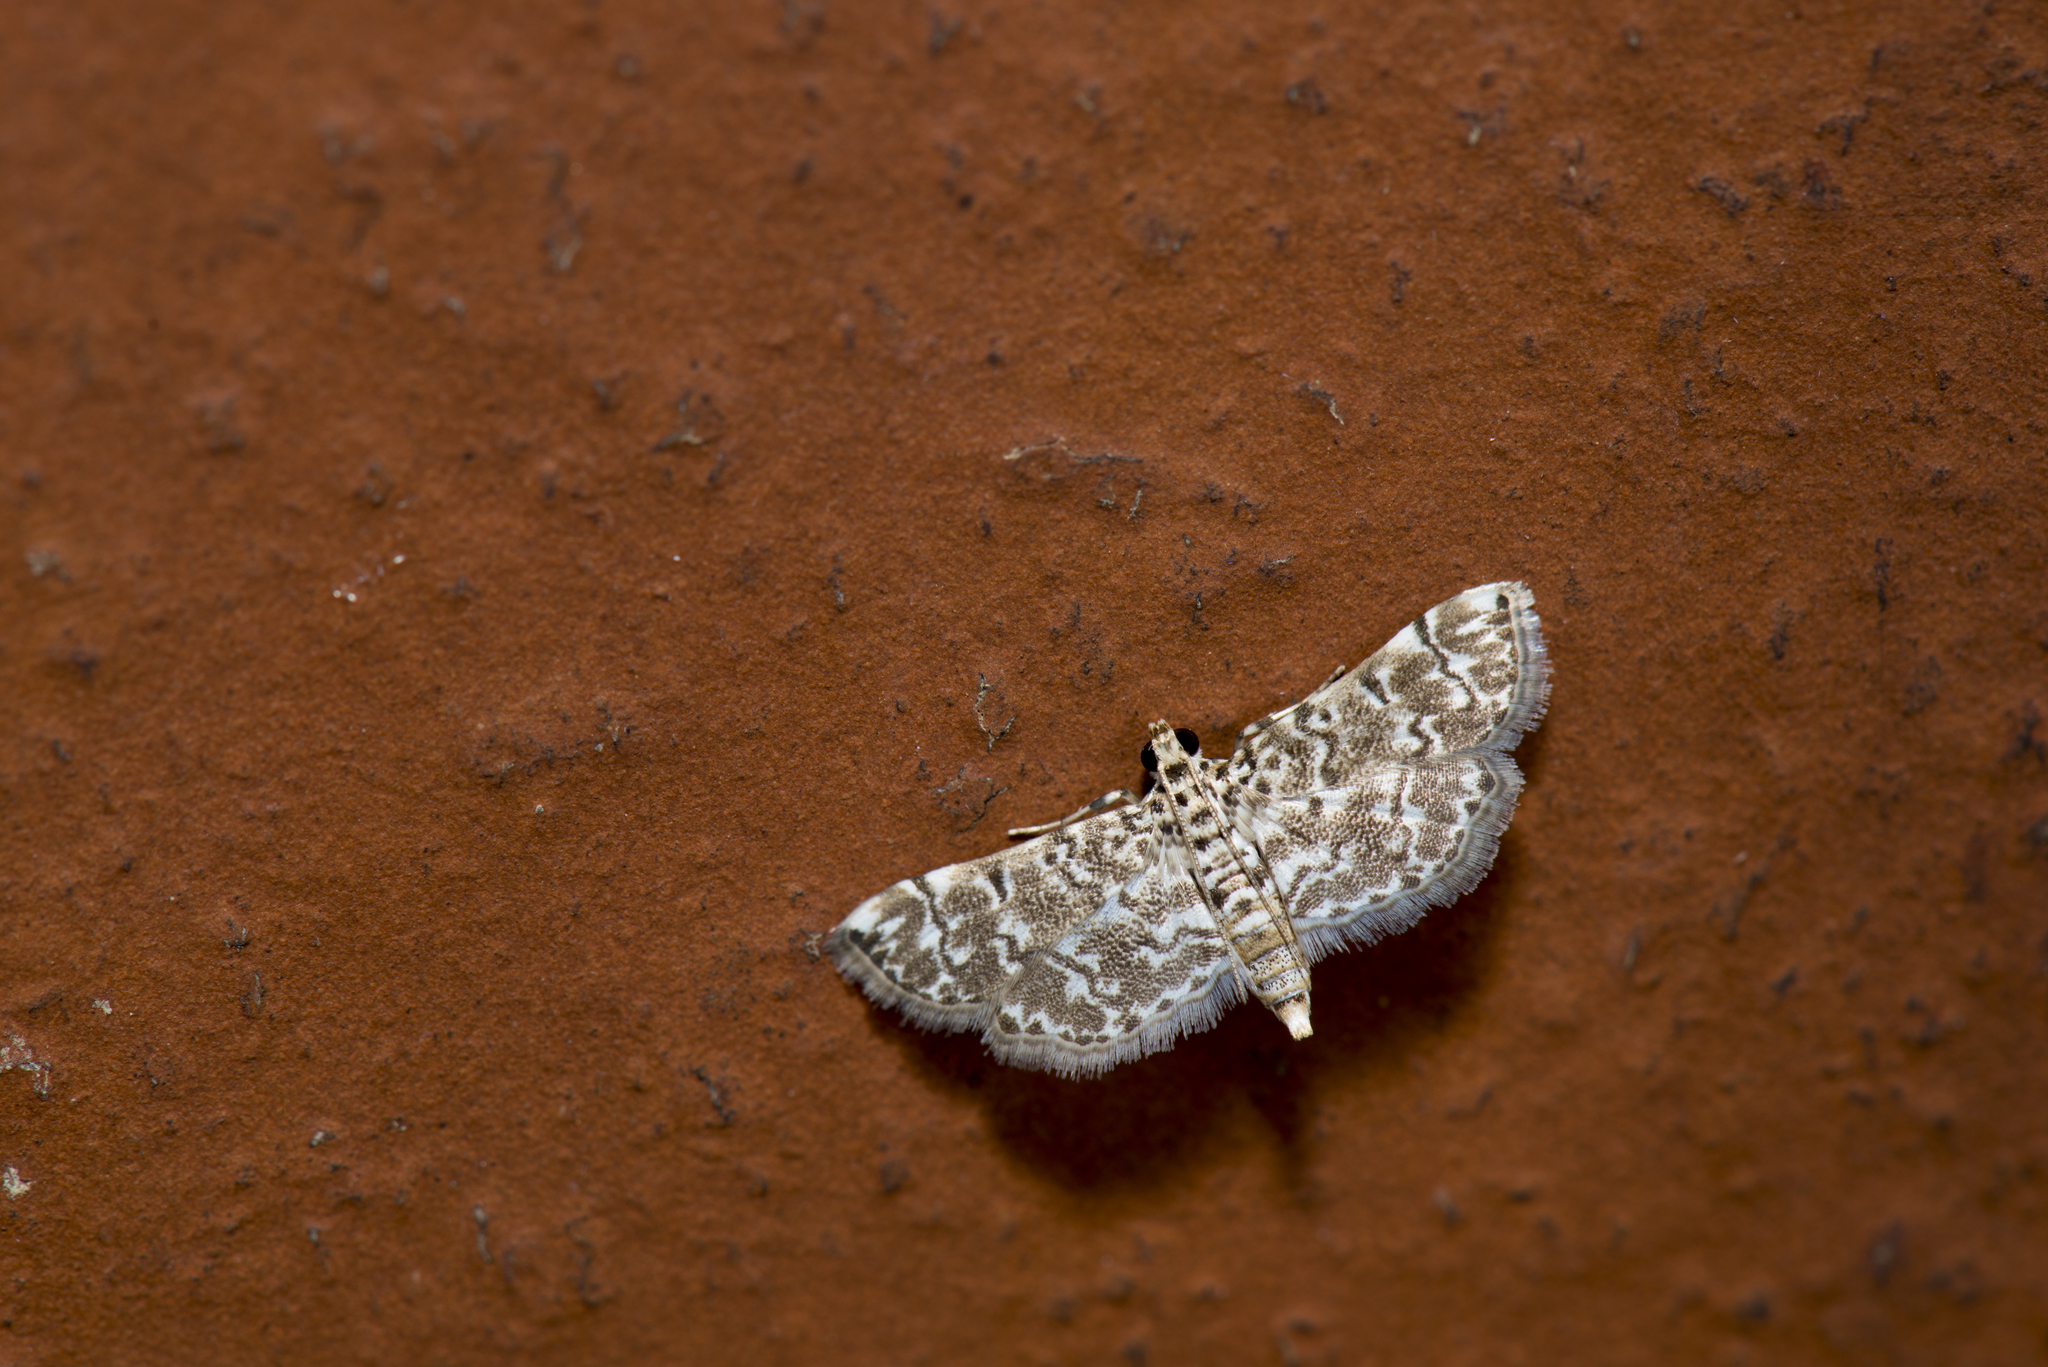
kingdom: Animalia
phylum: Arthropoda
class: Insecta
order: Lepidoptera
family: Crambidae
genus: Metoeca
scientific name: Metoeca foedalis
